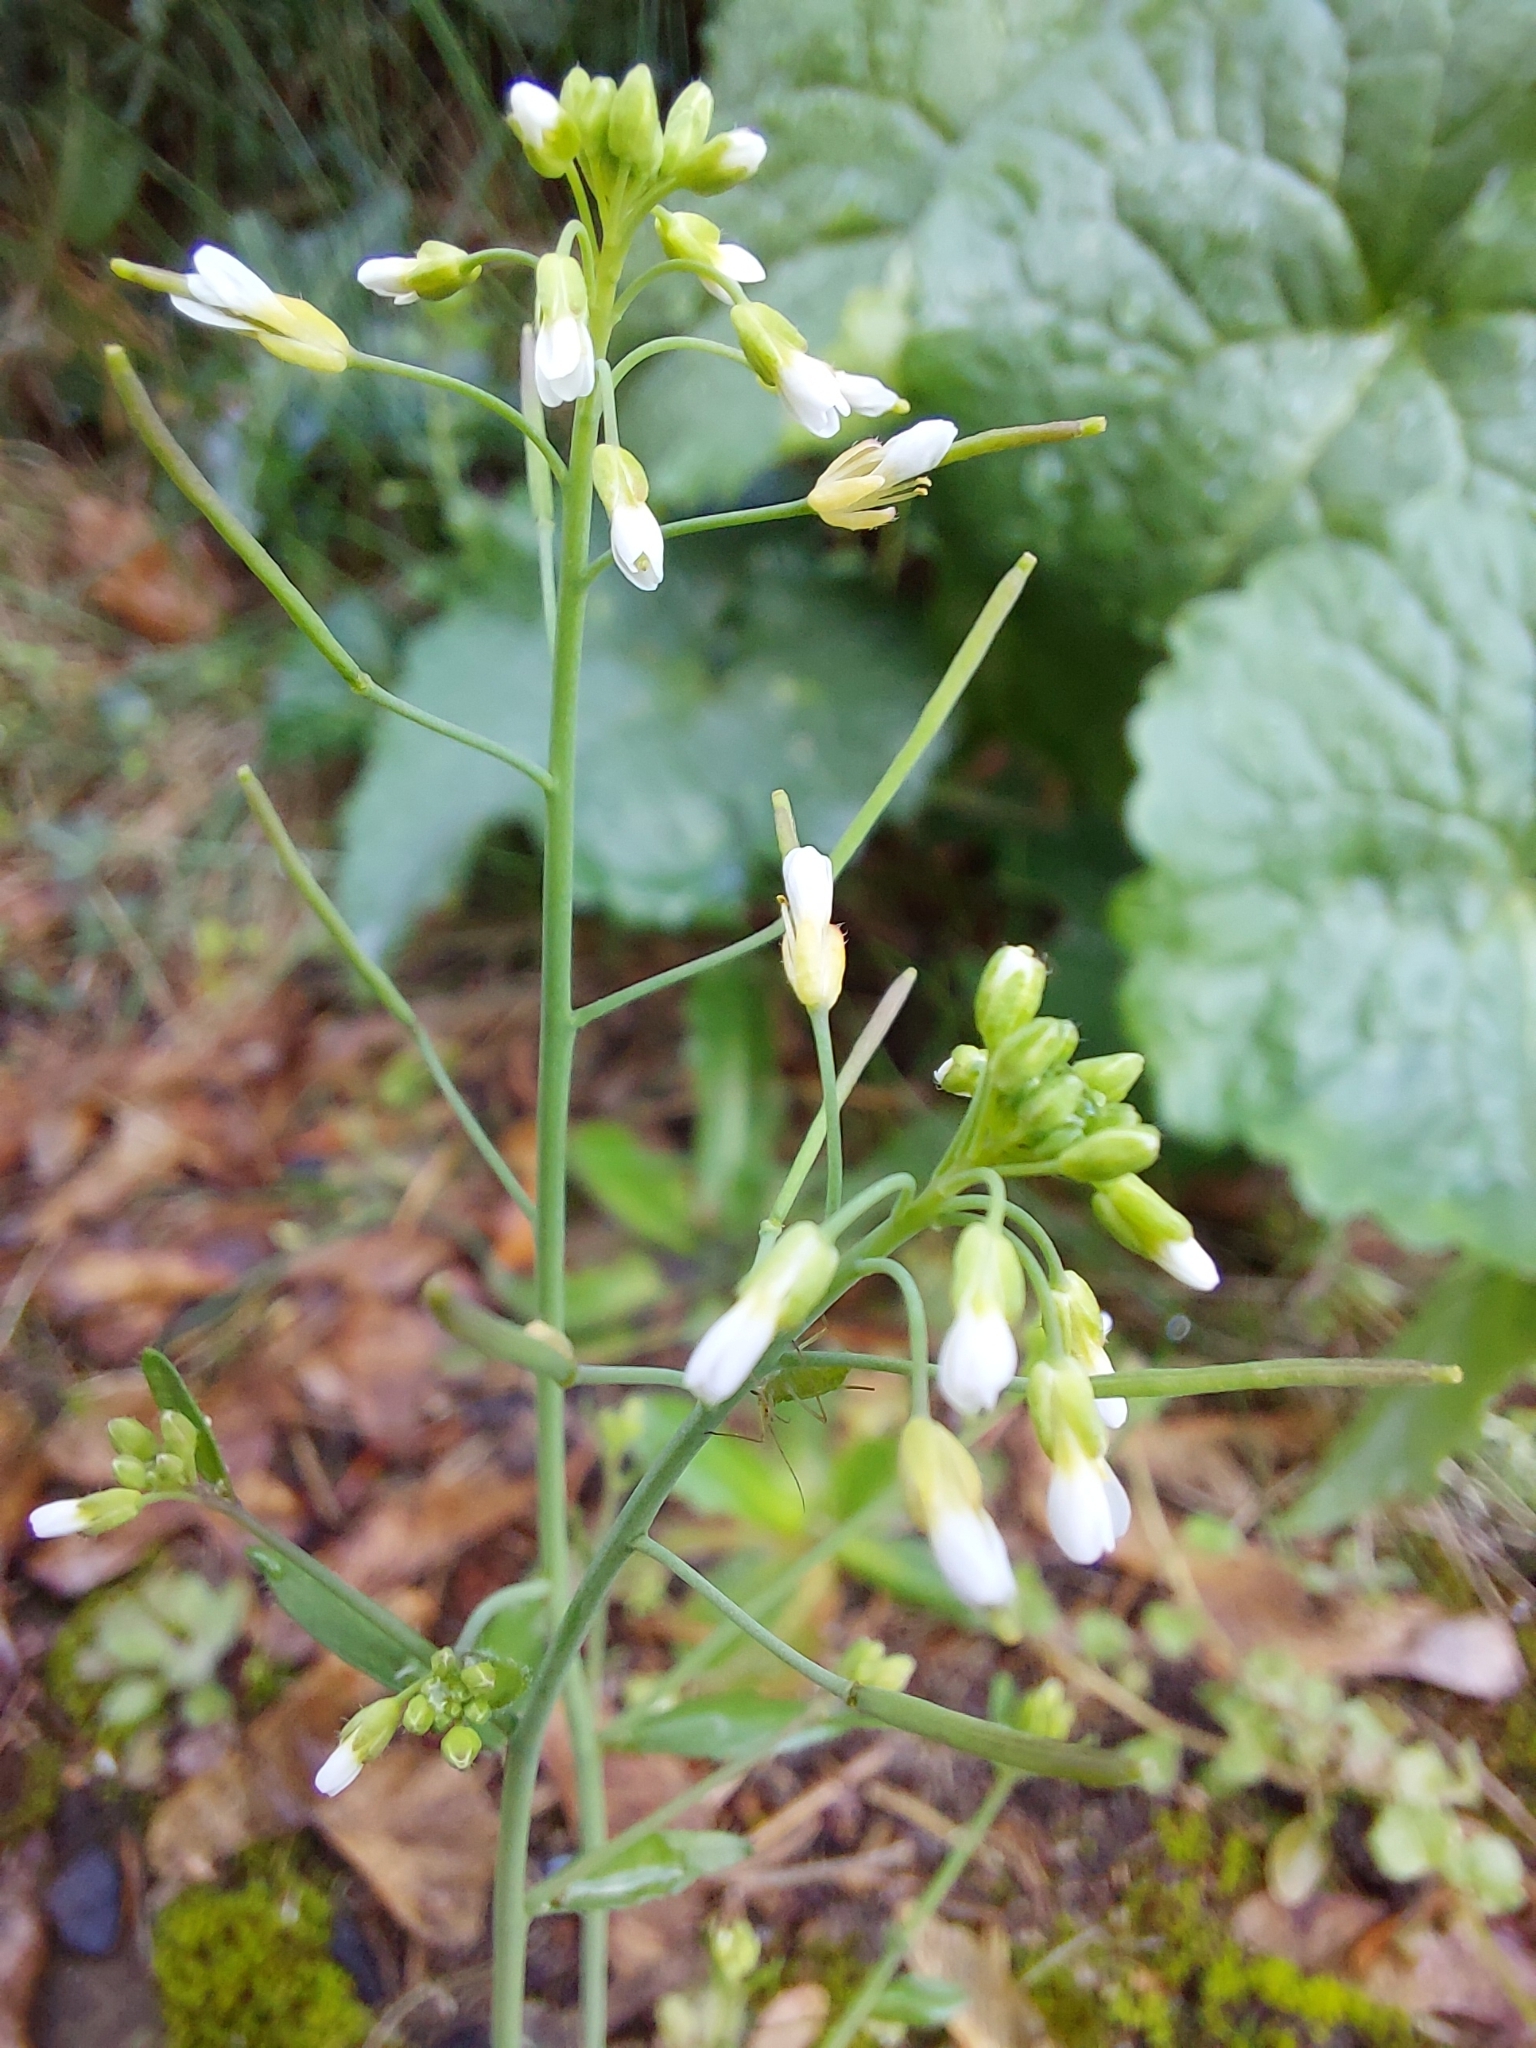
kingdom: Plantae
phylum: Tracheophyta
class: Magnoliopsida
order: Brassicales
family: Brassicaceae
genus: Arabidopsis
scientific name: Arabidopsis thaliana
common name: Thale cress
